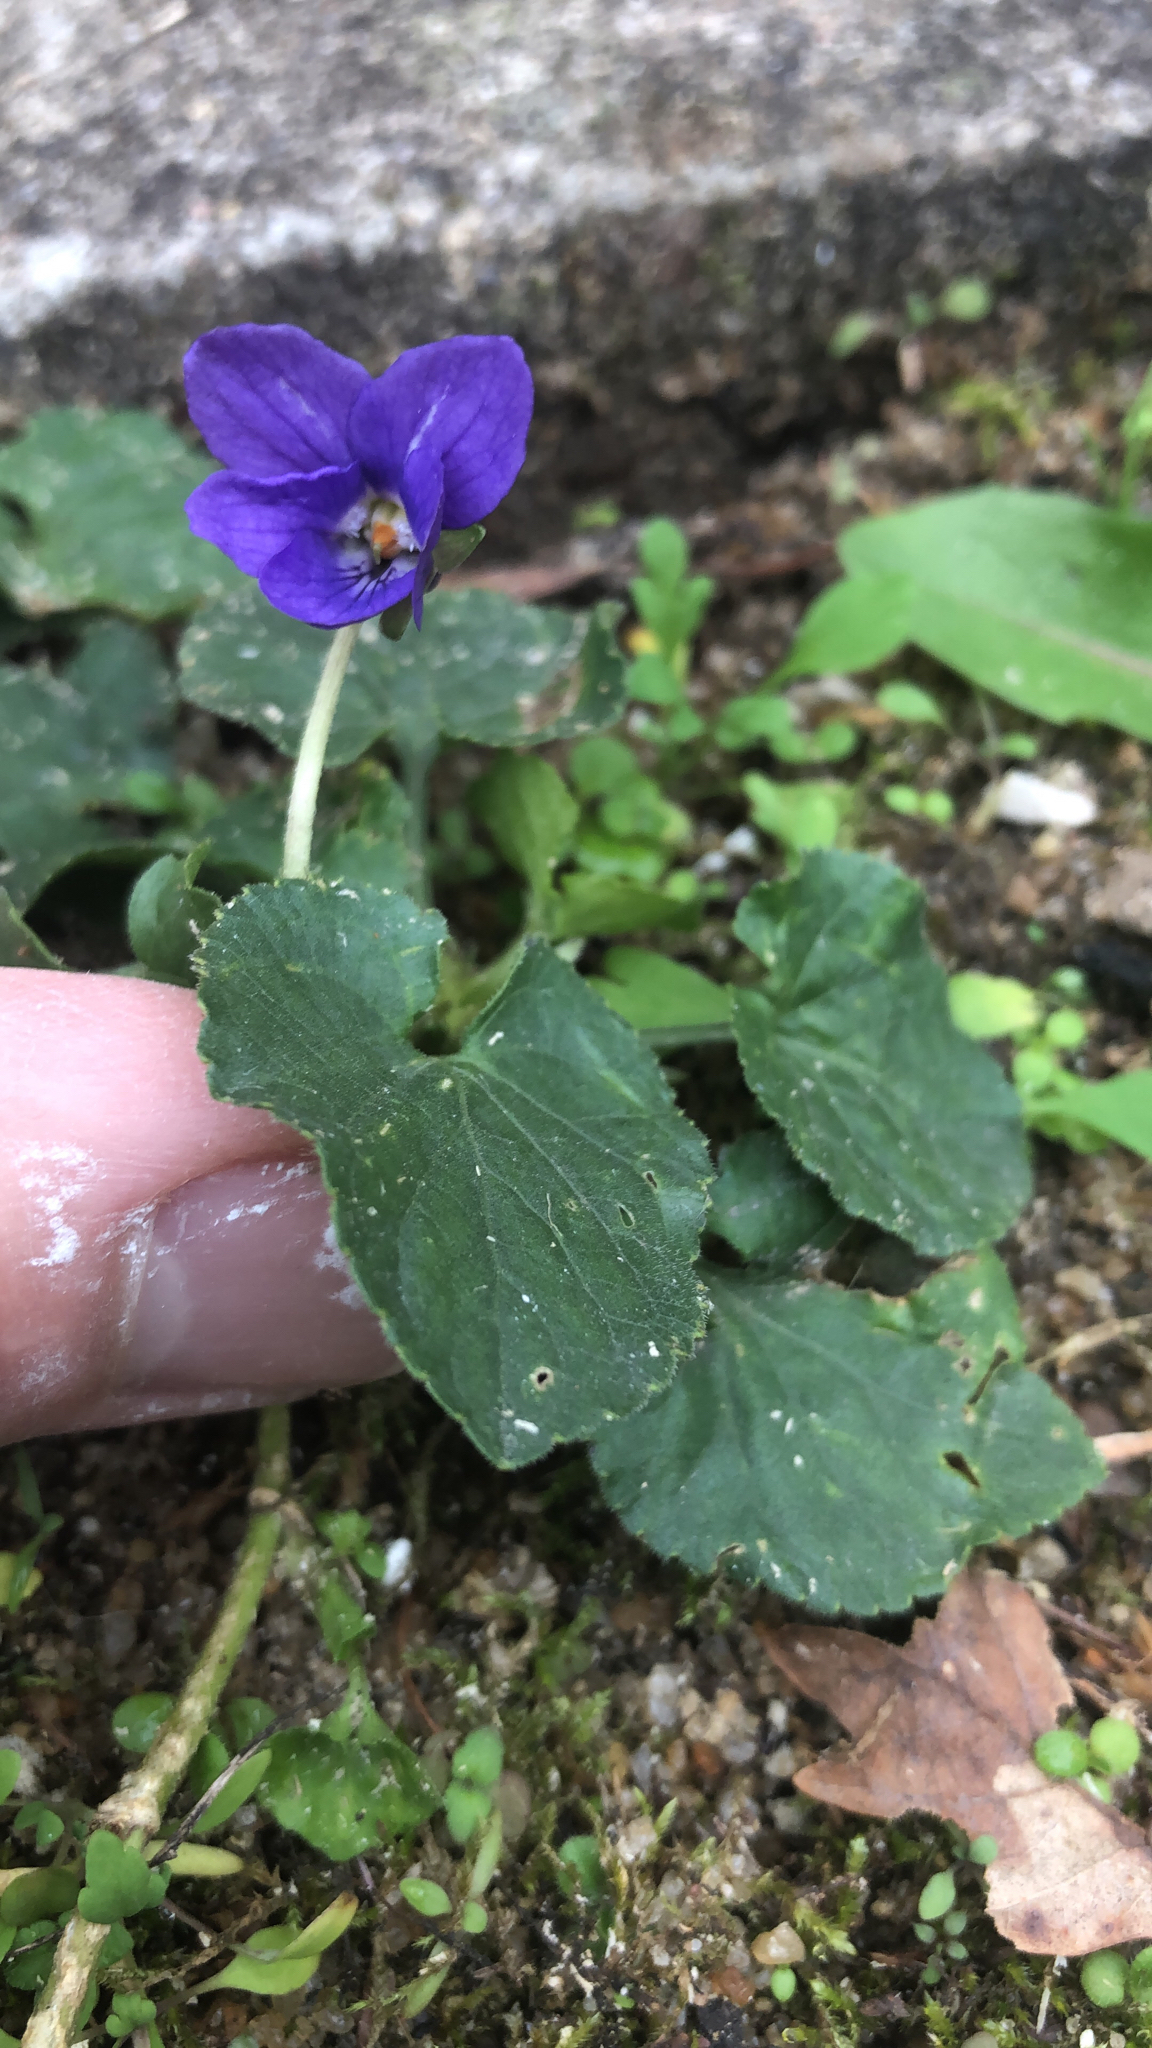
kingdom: Plantae
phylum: Tracheophyta
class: Magnoliopsida
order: Malpighiales
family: Violaceae
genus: Viola
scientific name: Viola odorata
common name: Sweet violet
